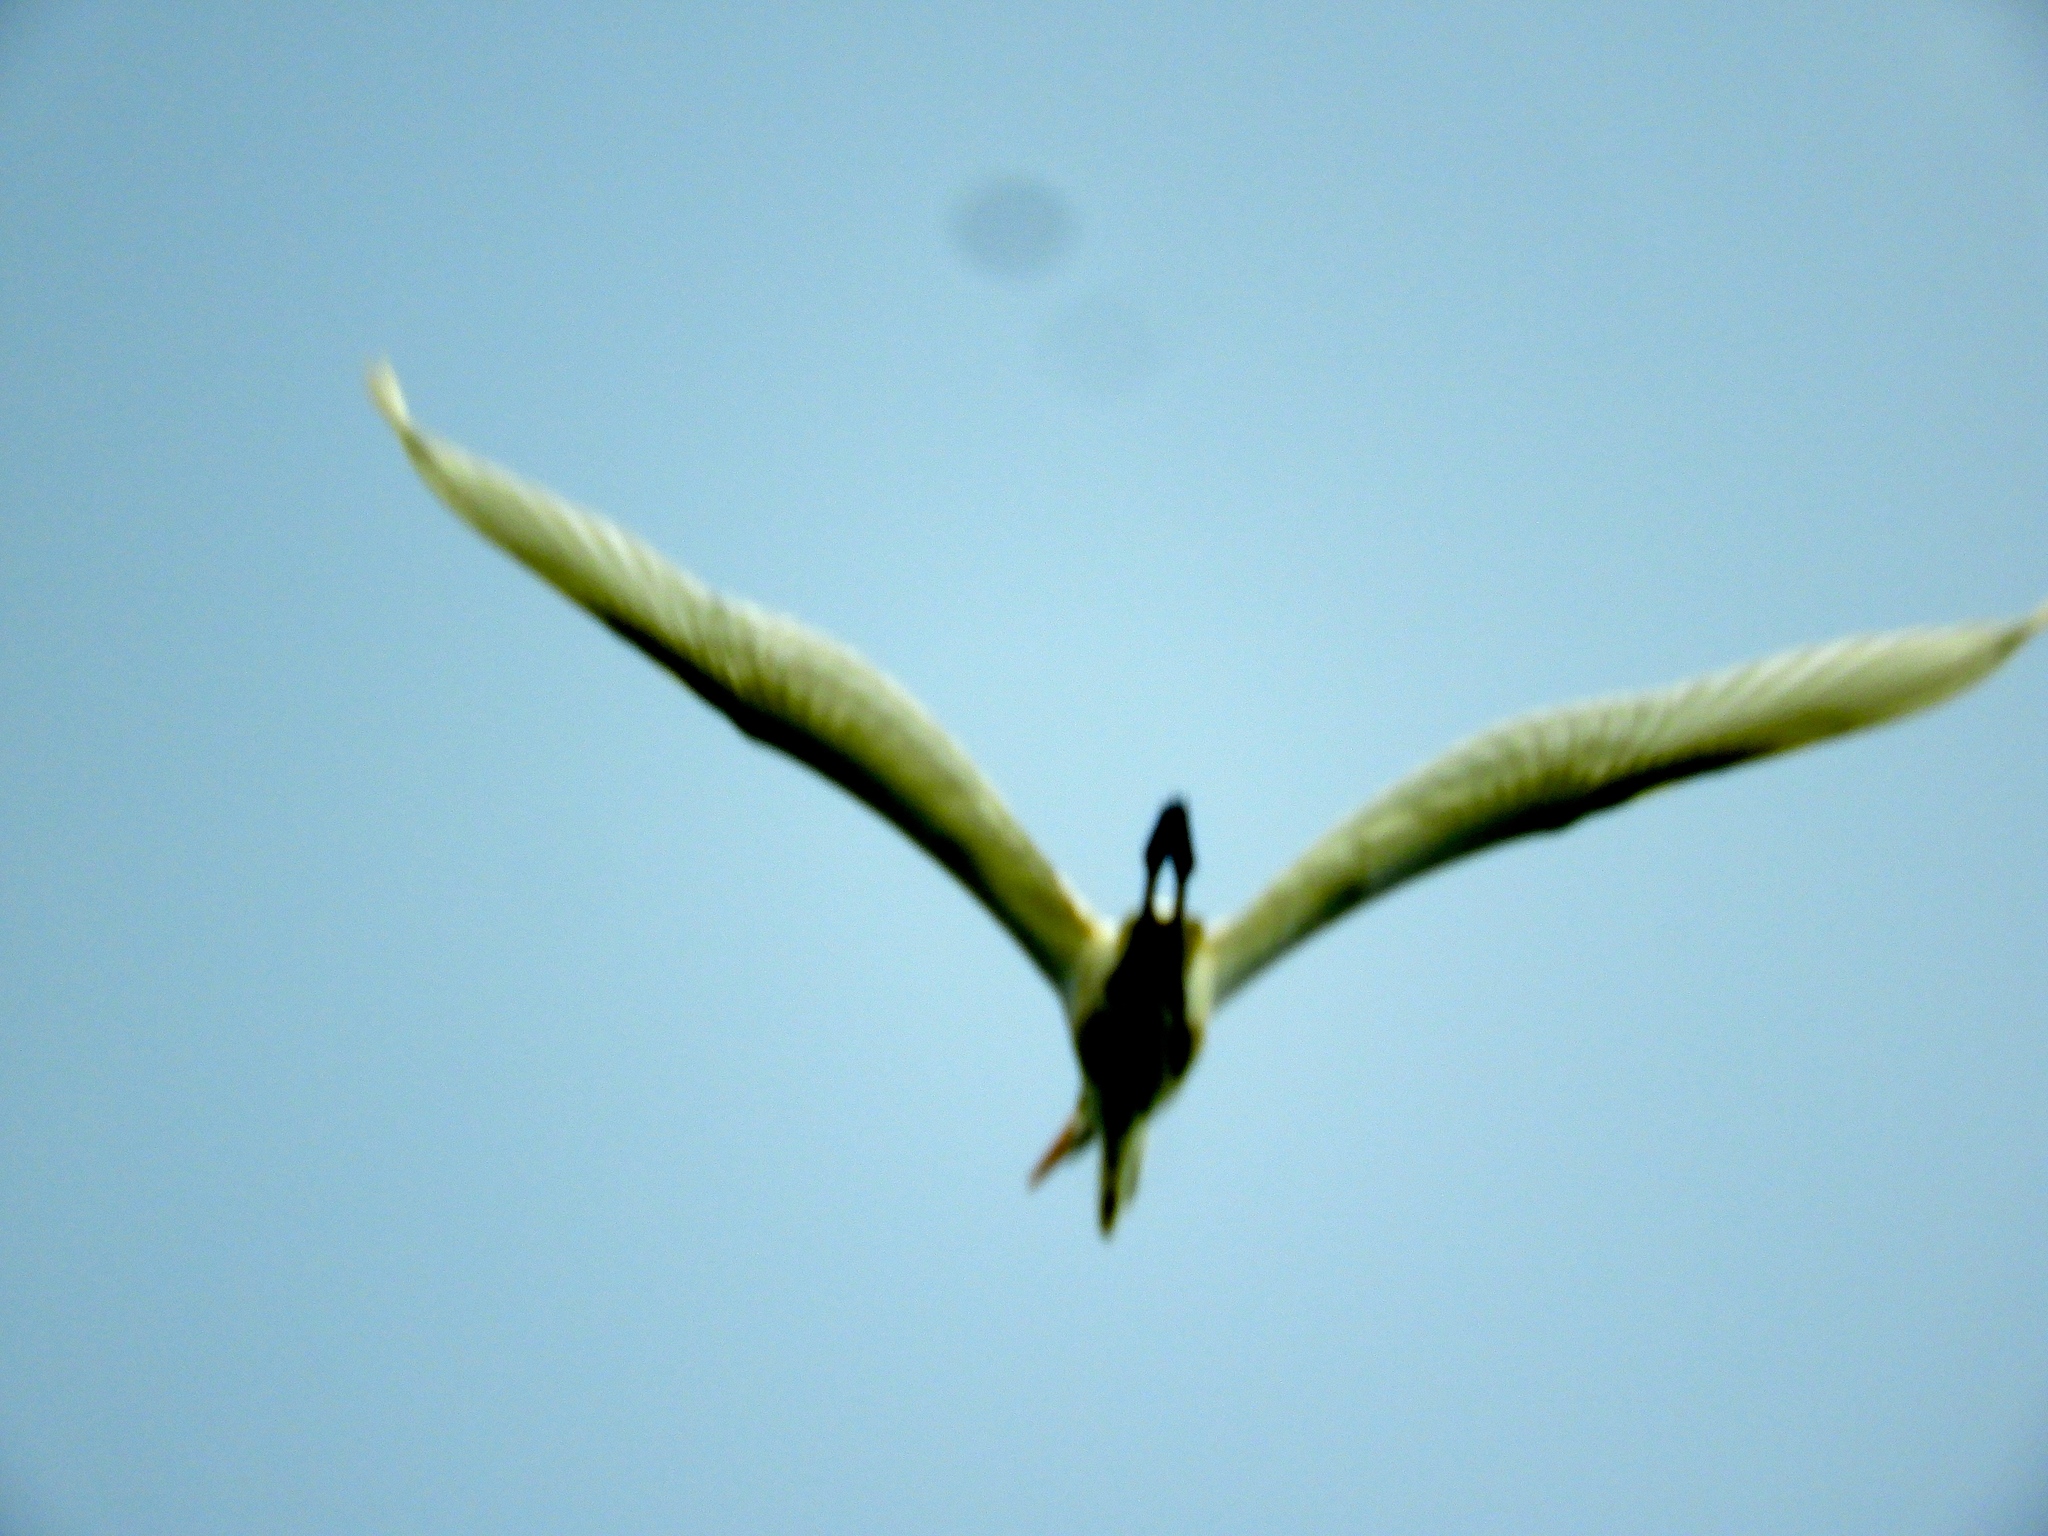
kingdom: Animalia
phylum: Chordata
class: Aves
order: Pelecaniformes
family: Ardeidae
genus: Ardea
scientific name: Ardea alba
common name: Great egret
